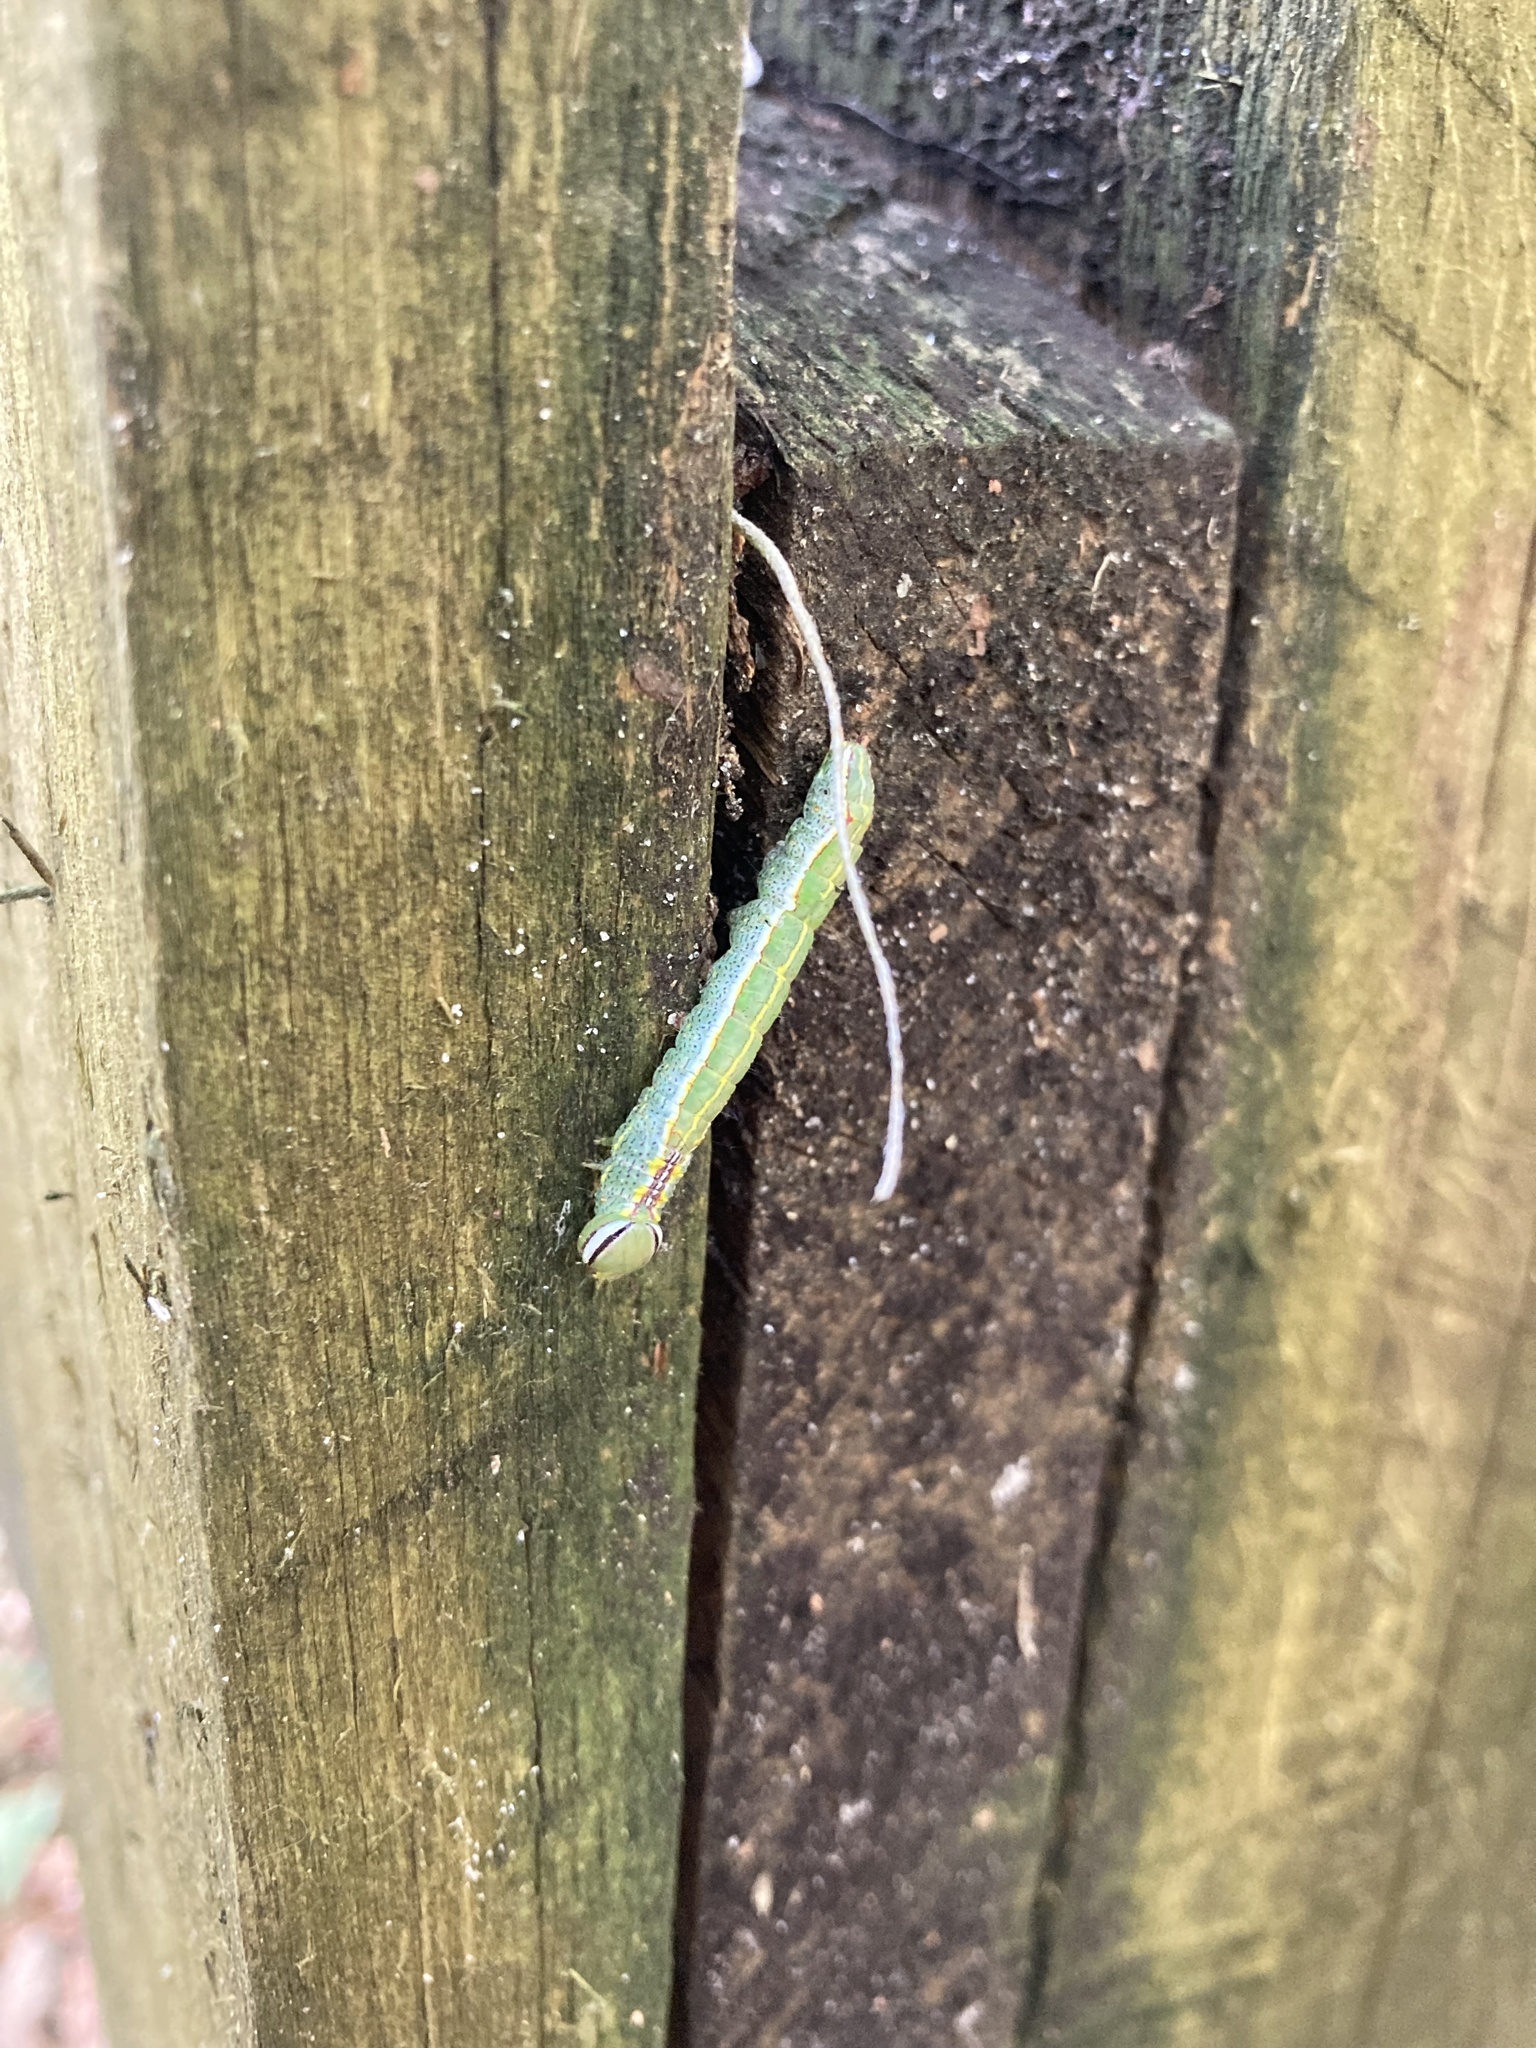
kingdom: Animalia
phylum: Arthropoda
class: Insecta
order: Lepidoptera
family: Notodontidae
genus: Lochmaeus
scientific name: Lochmaeus manteo
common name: Variable oakleaf caterpillar moth
